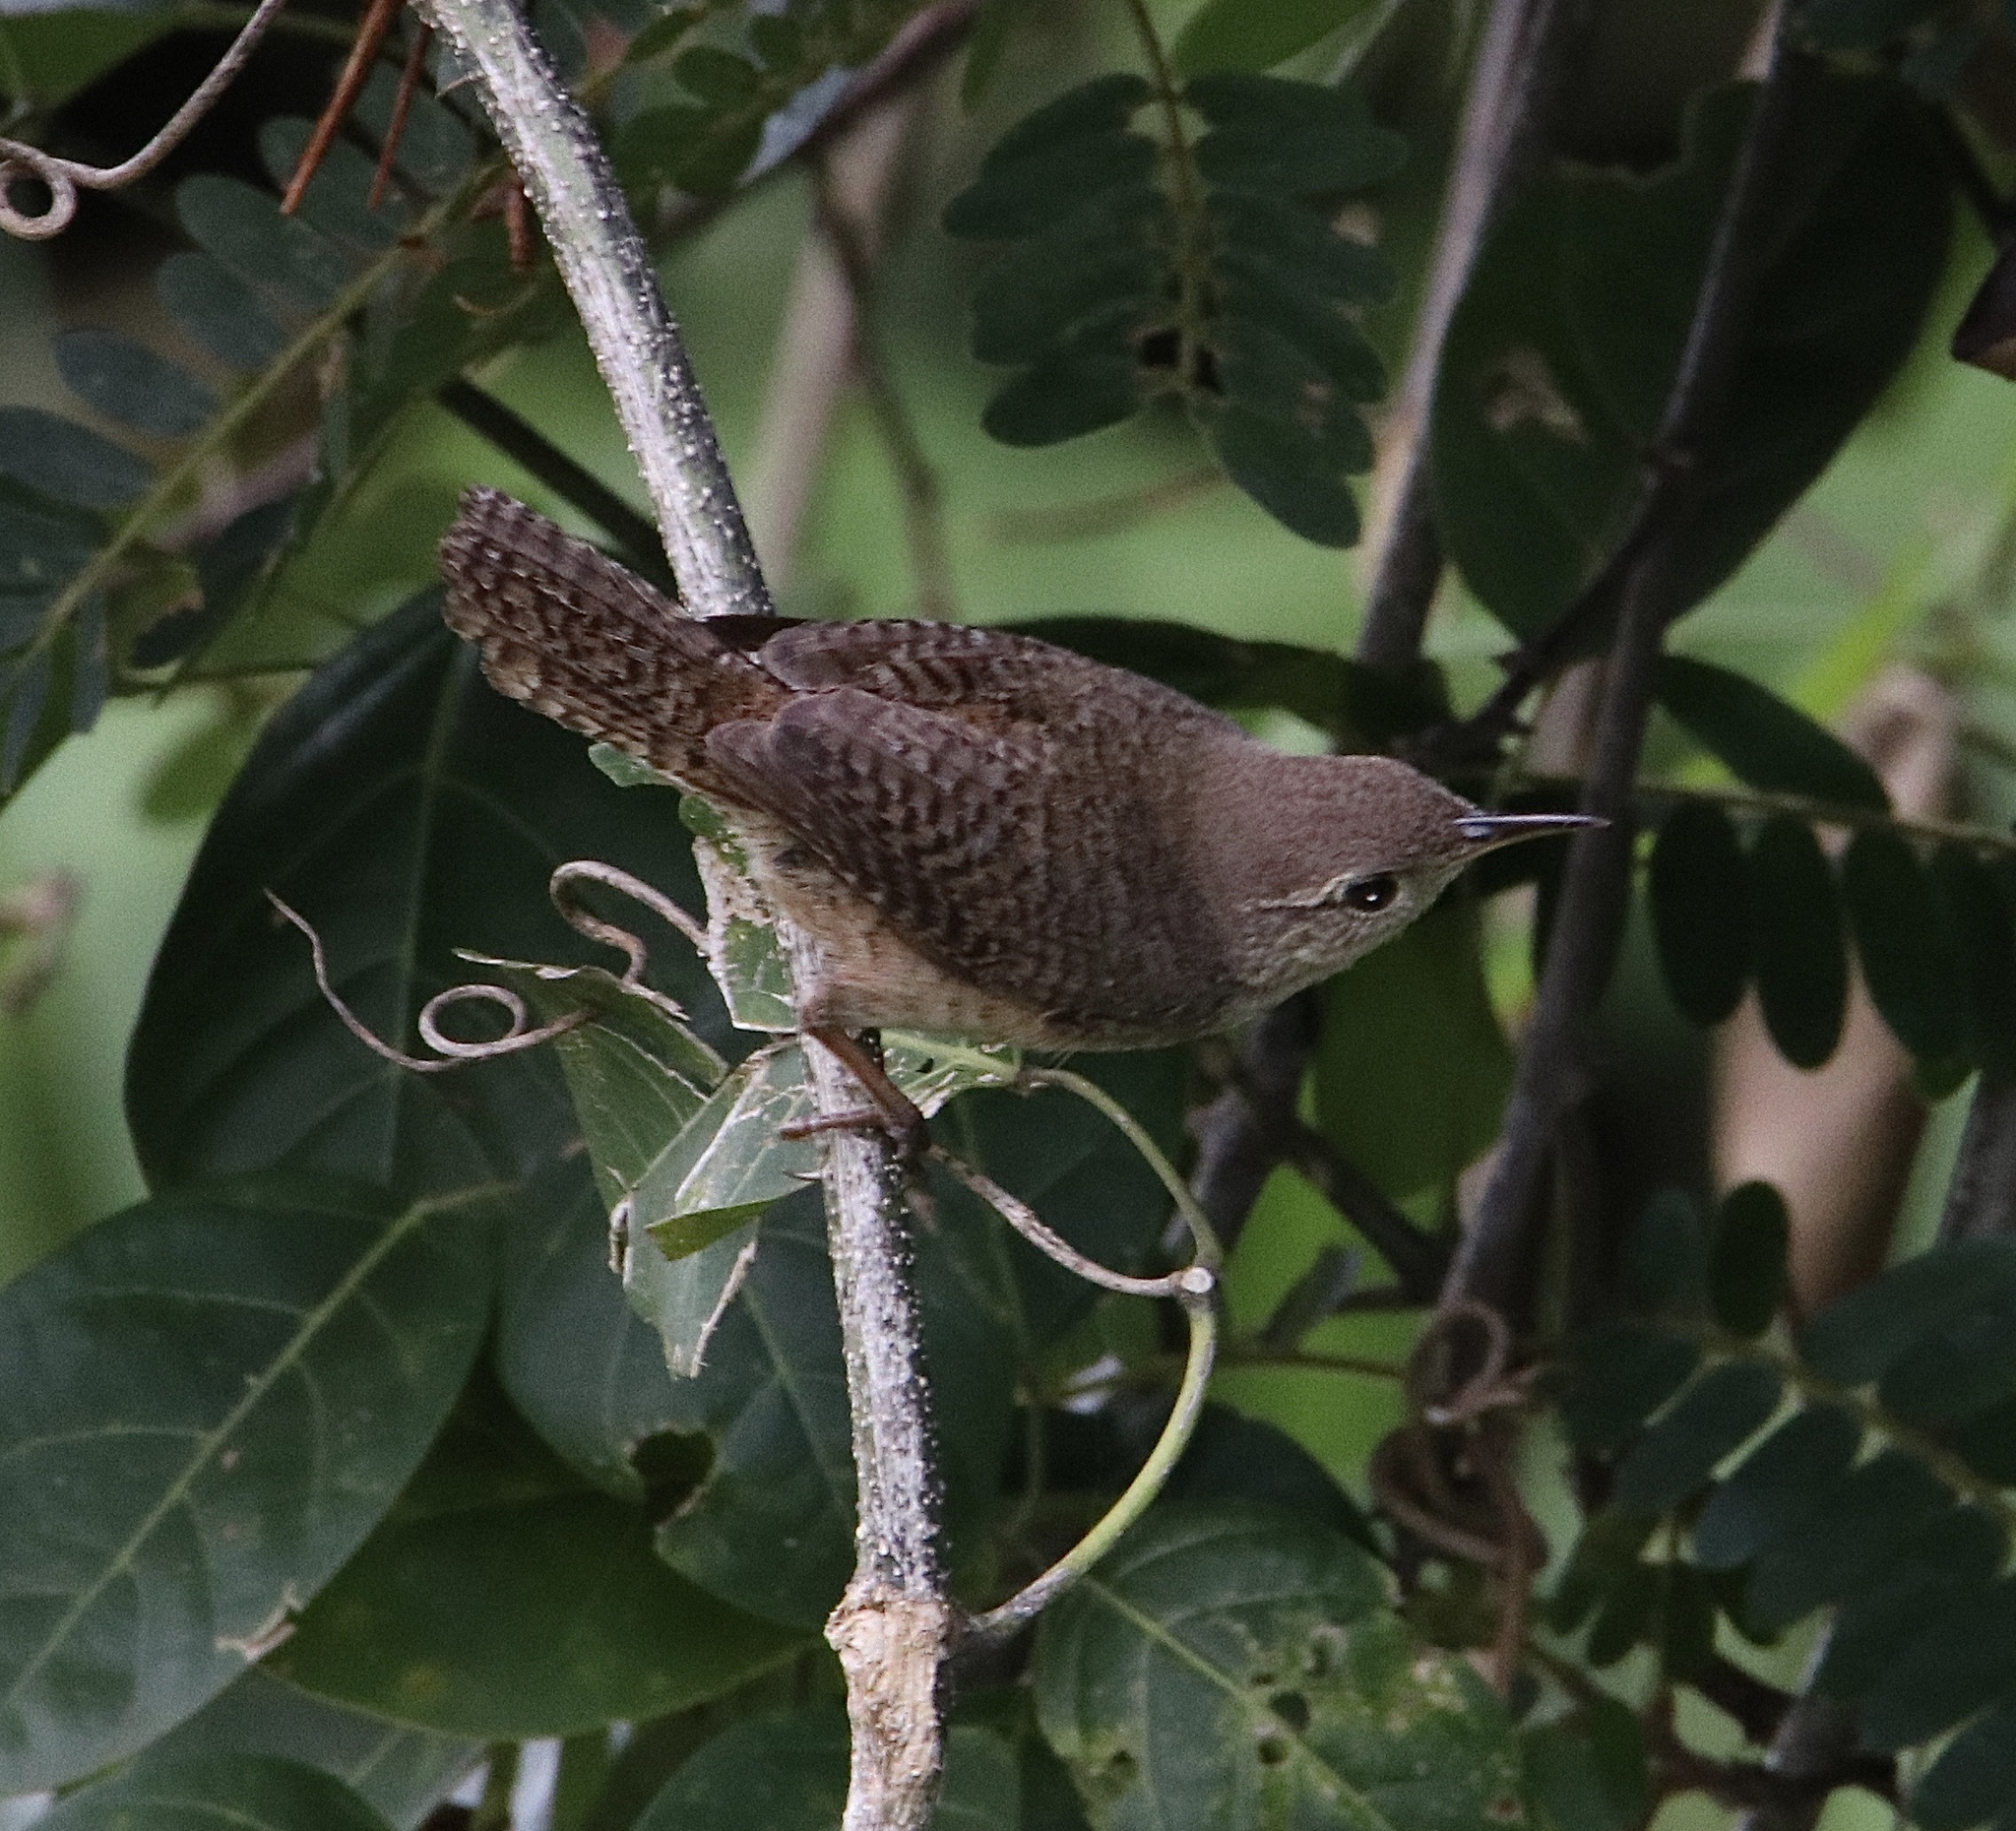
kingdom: Animalia
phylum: Chordata
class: Aves
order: Passeriformes
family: Troglodytidae
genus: Cantorchilus
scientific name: Cantorchilus leucotis
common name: Buff-breasted wren
